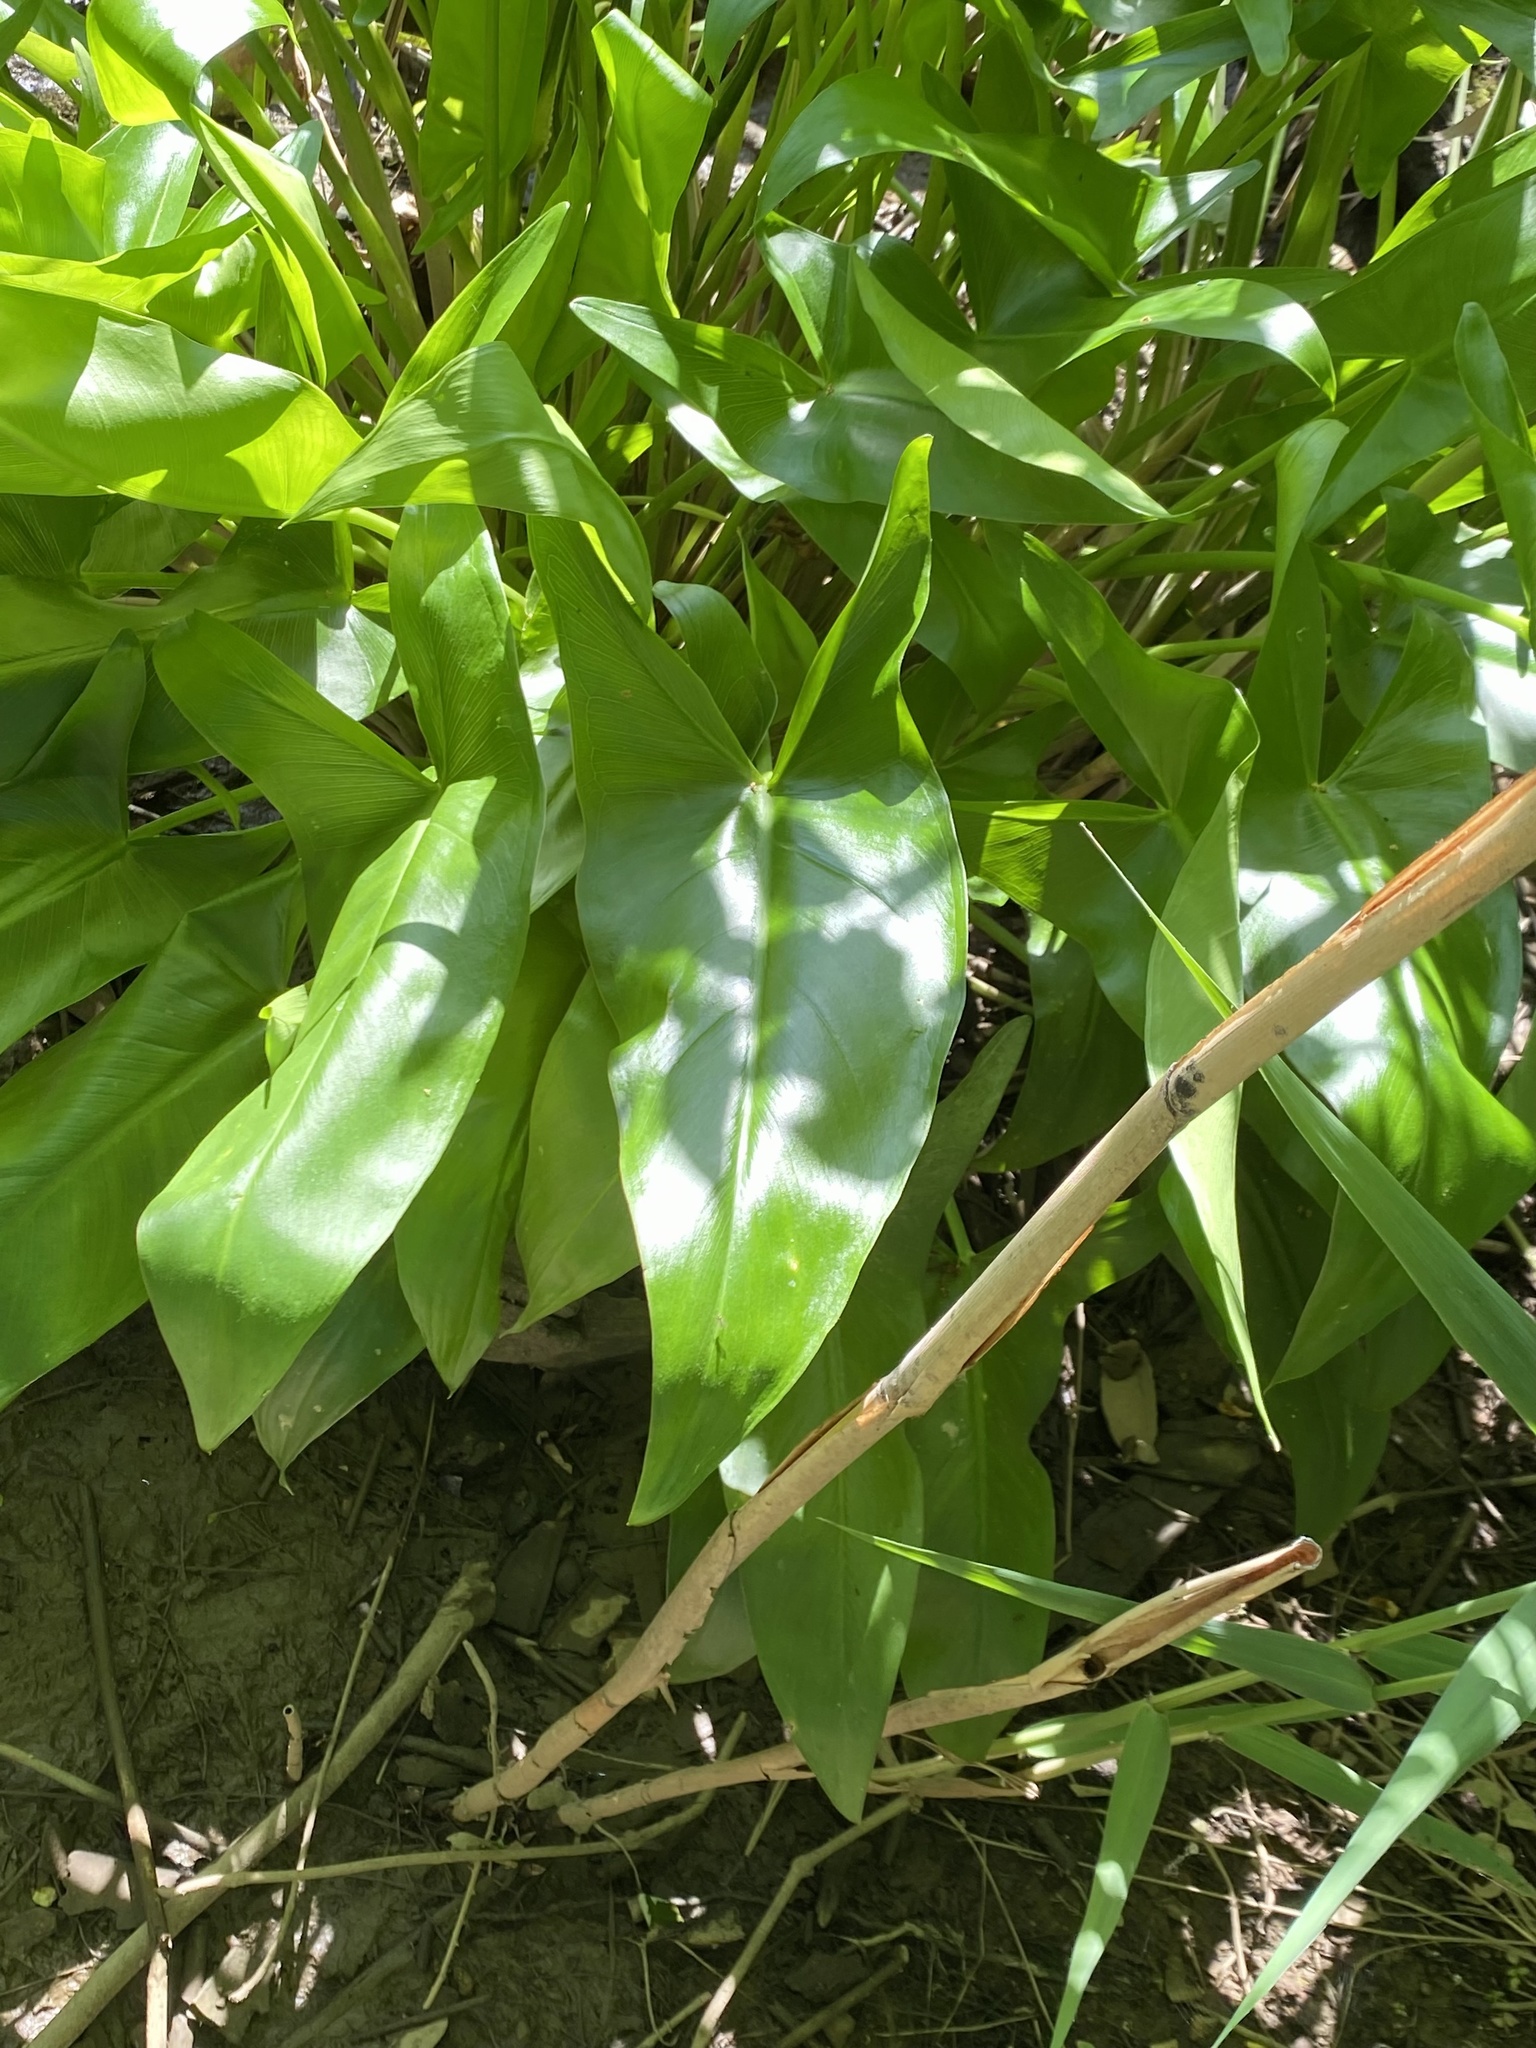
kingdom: Plantae
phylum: Tracheophyta
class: Liliopsida
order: Alismatales
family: Araceae
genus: Peltandra
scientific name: Peltandra virginica
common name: Arrow arum
